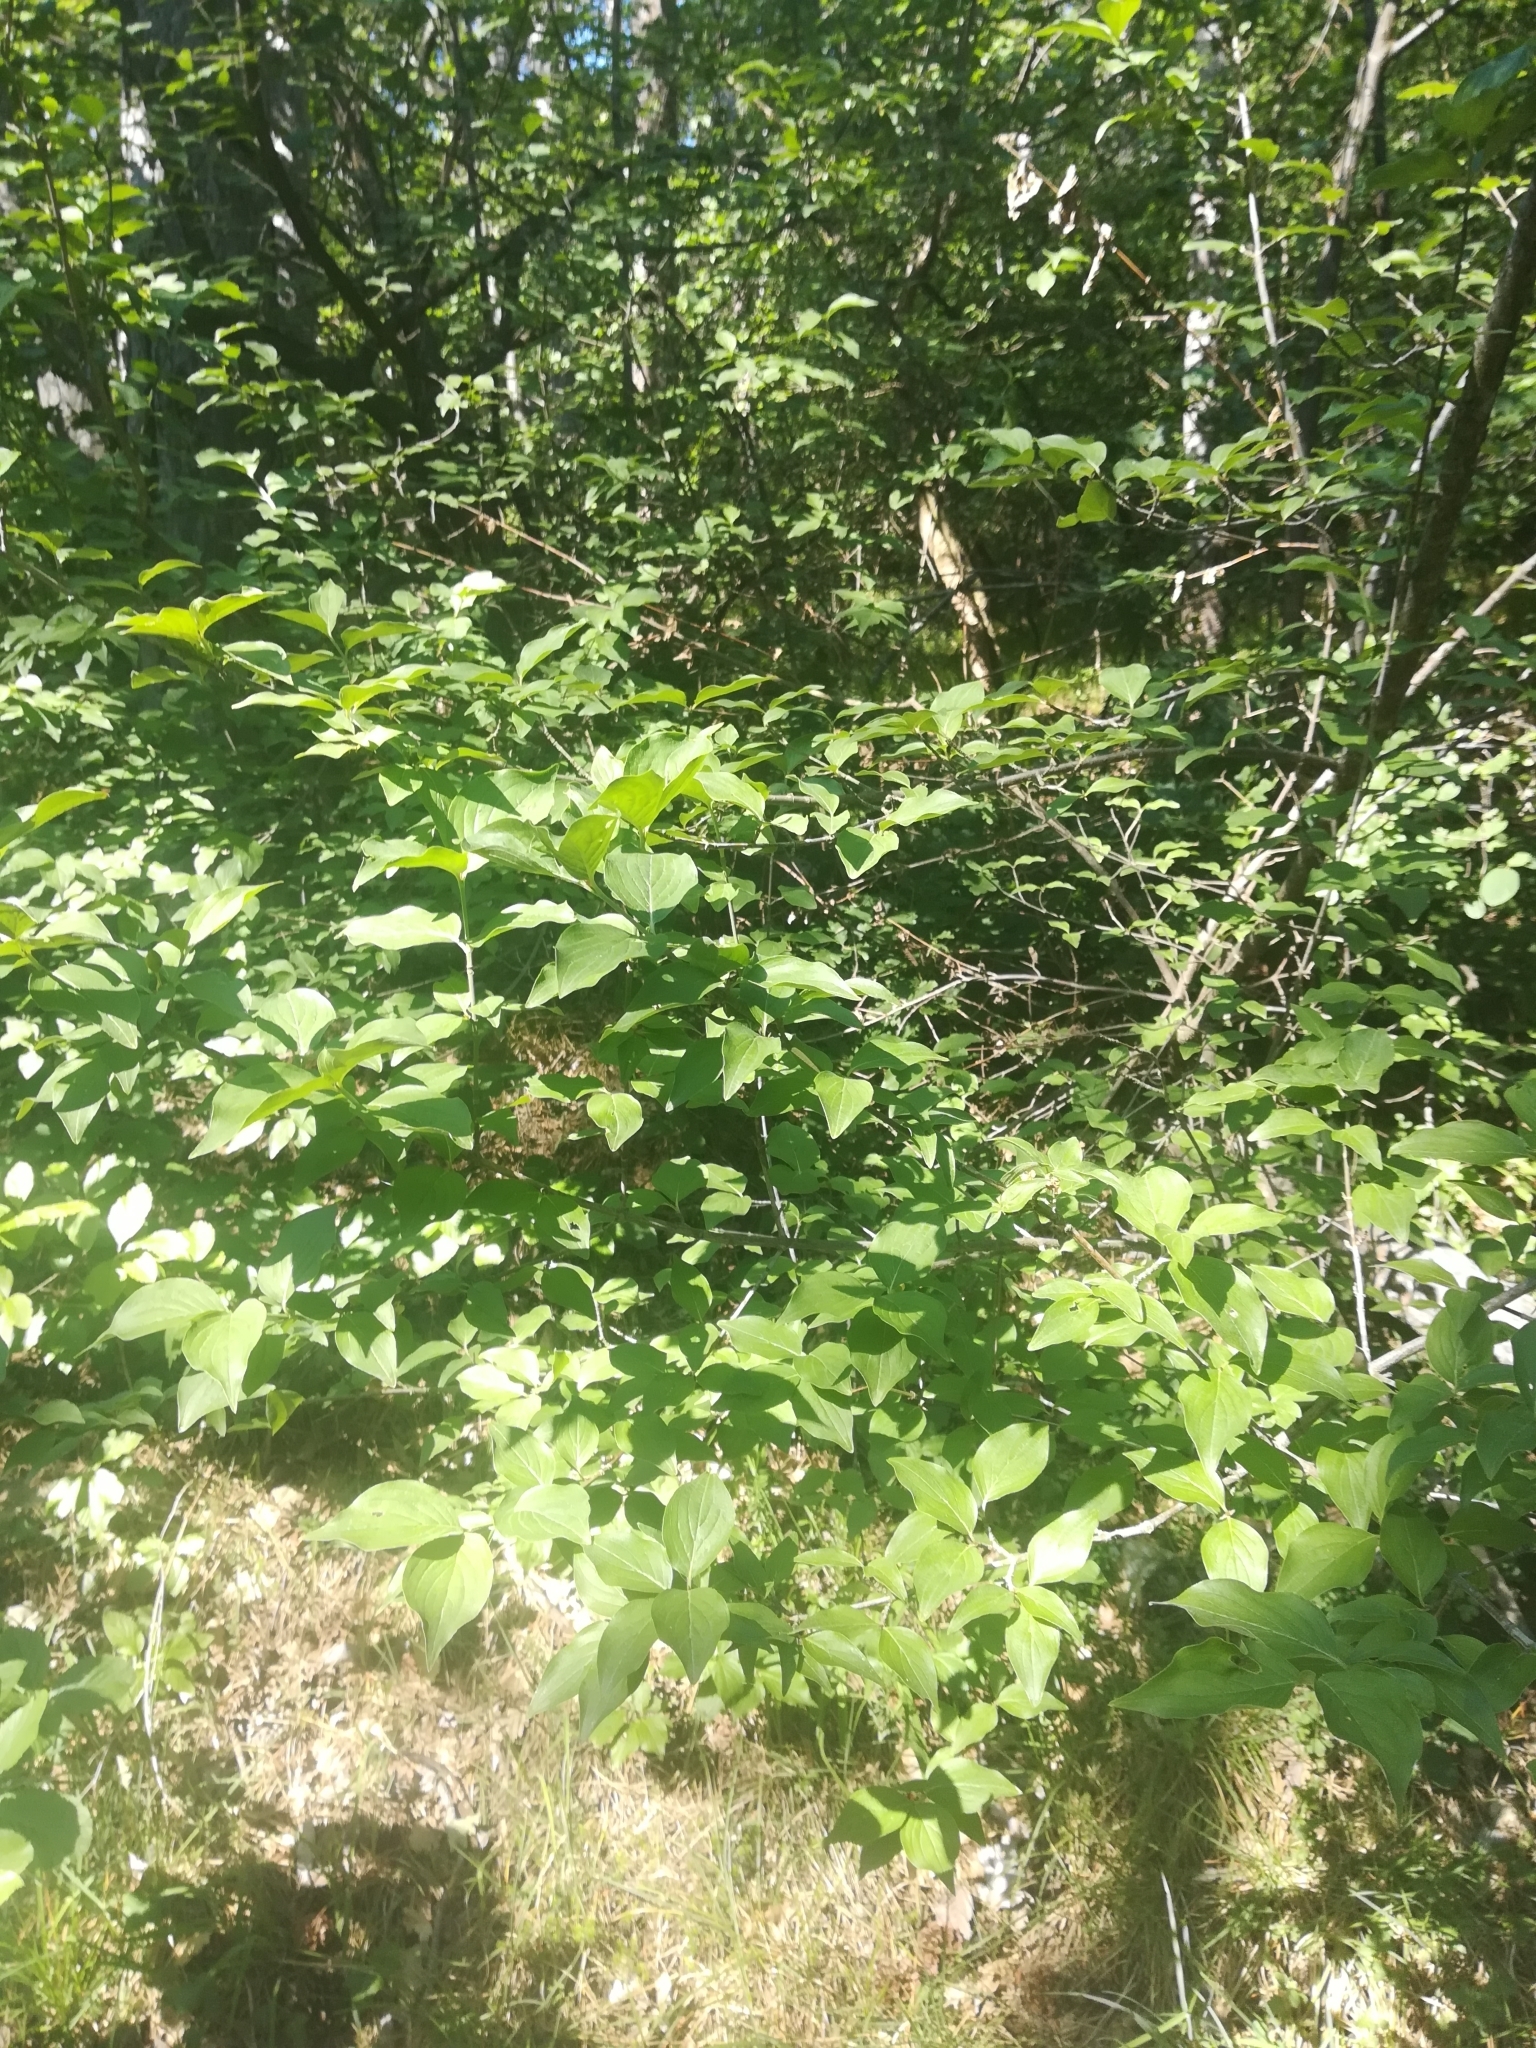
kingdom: Plantae
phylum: Tracheophyta
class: Magnoliopsida
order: Cornales
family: Cornaceae
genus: Cornus
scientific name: Cornus mas
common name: Cornelian-cherry
